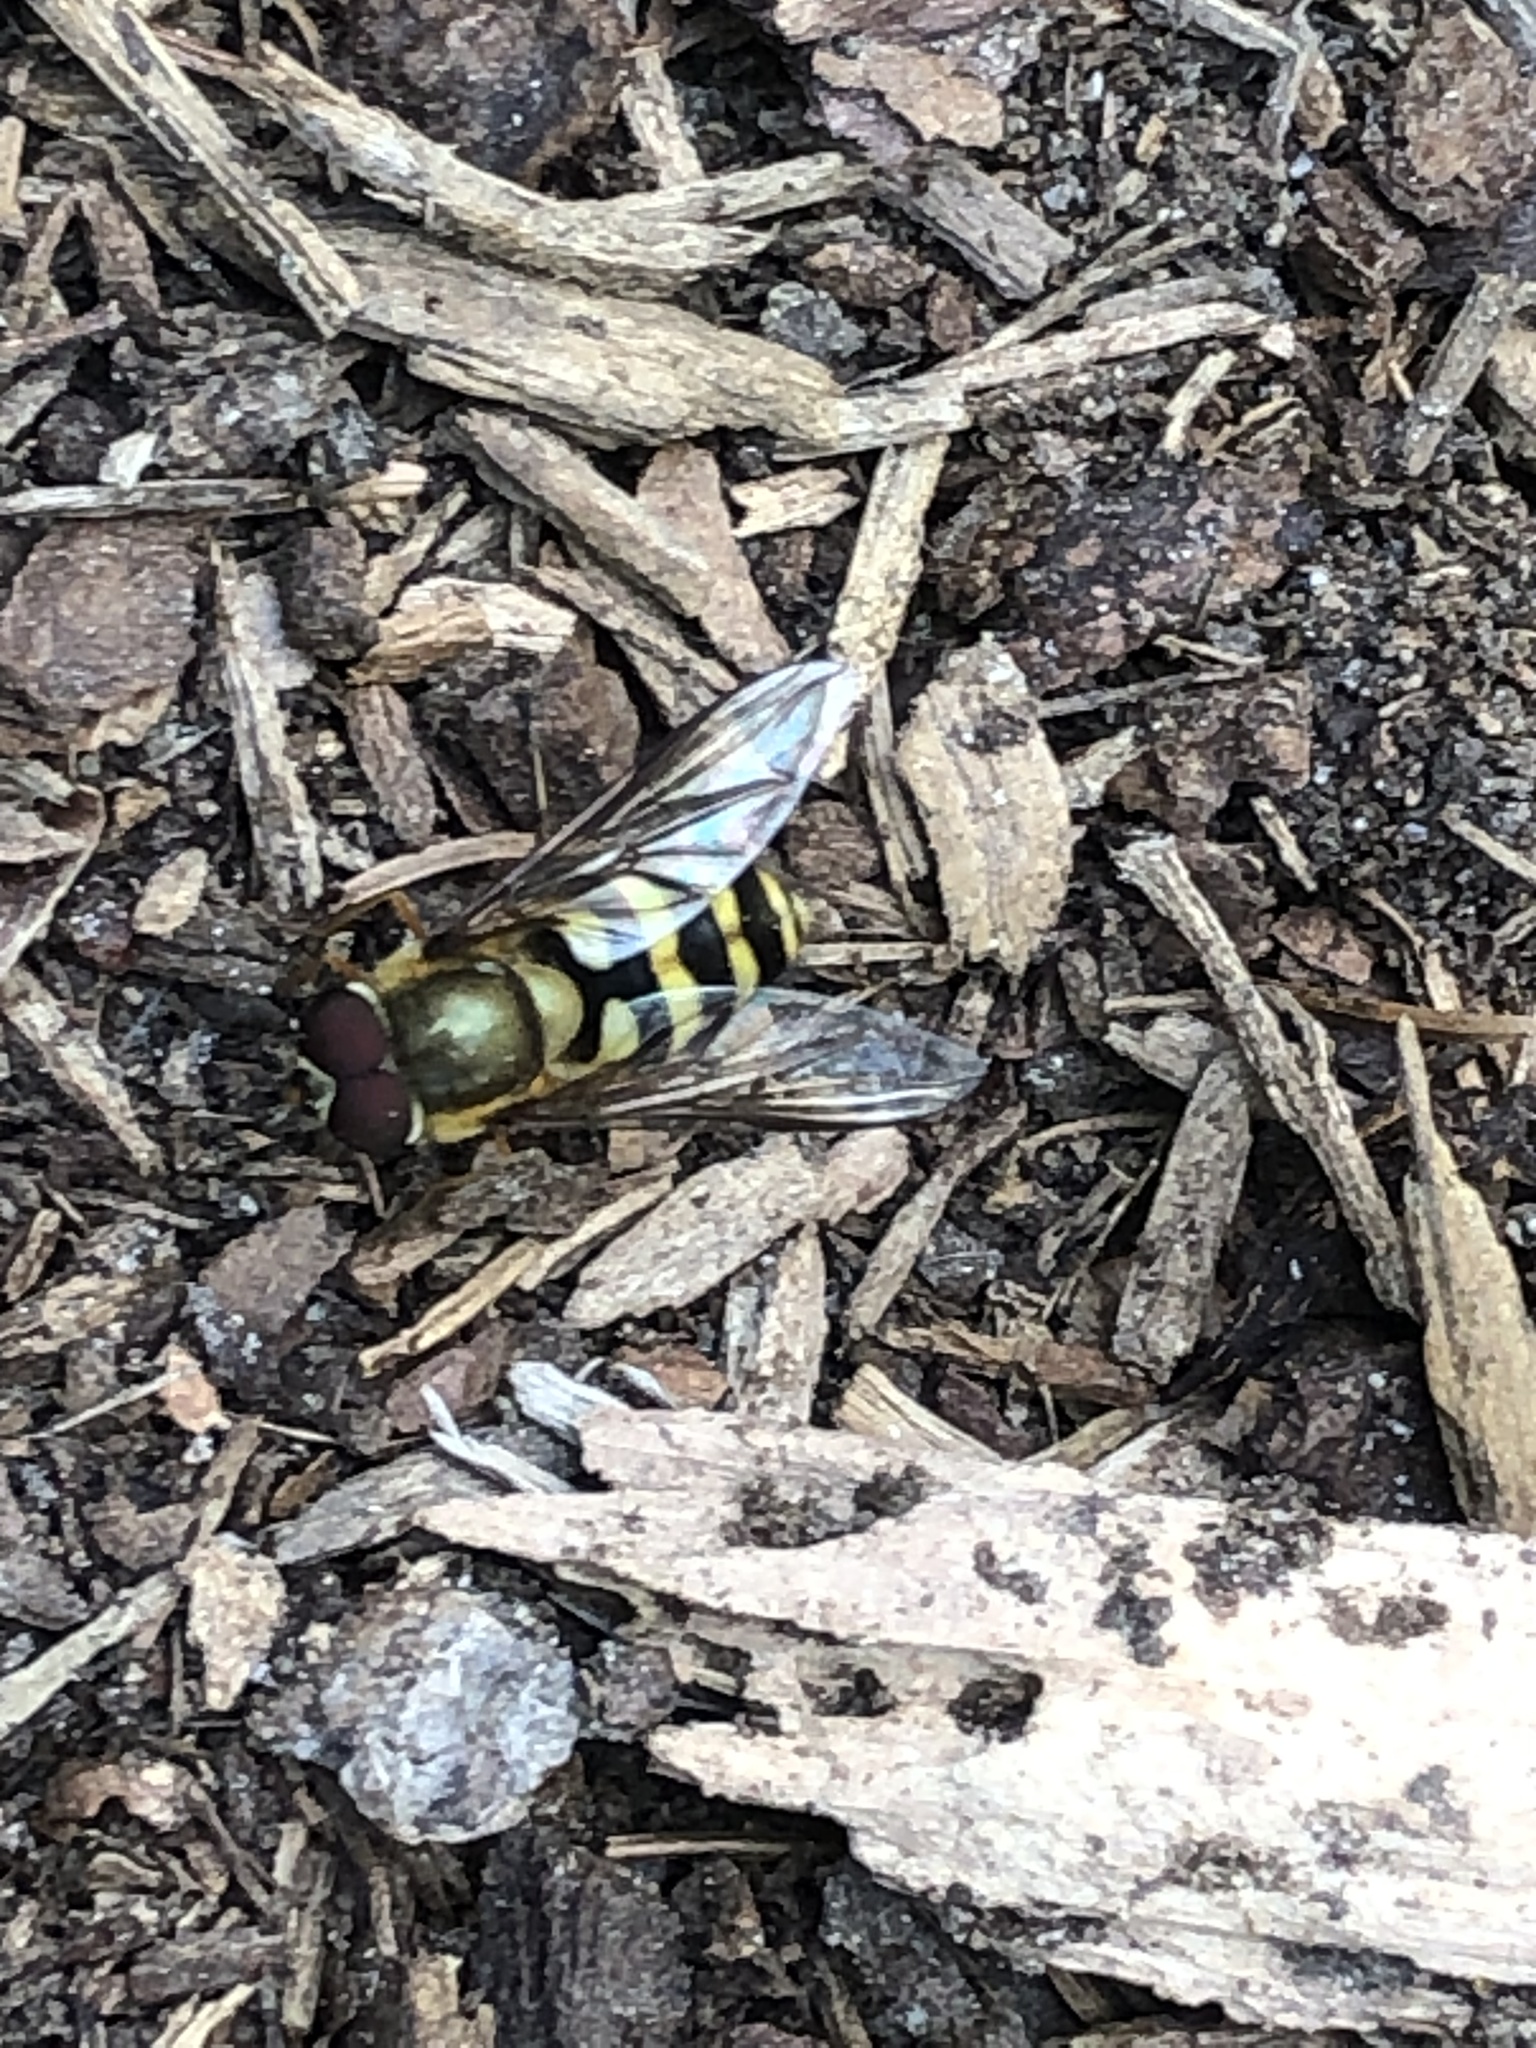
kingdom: Animalia
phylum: Arthropoda
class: Insecta
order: Diptera
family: Syrphidae
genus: Syrphus
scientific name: Syrphus
